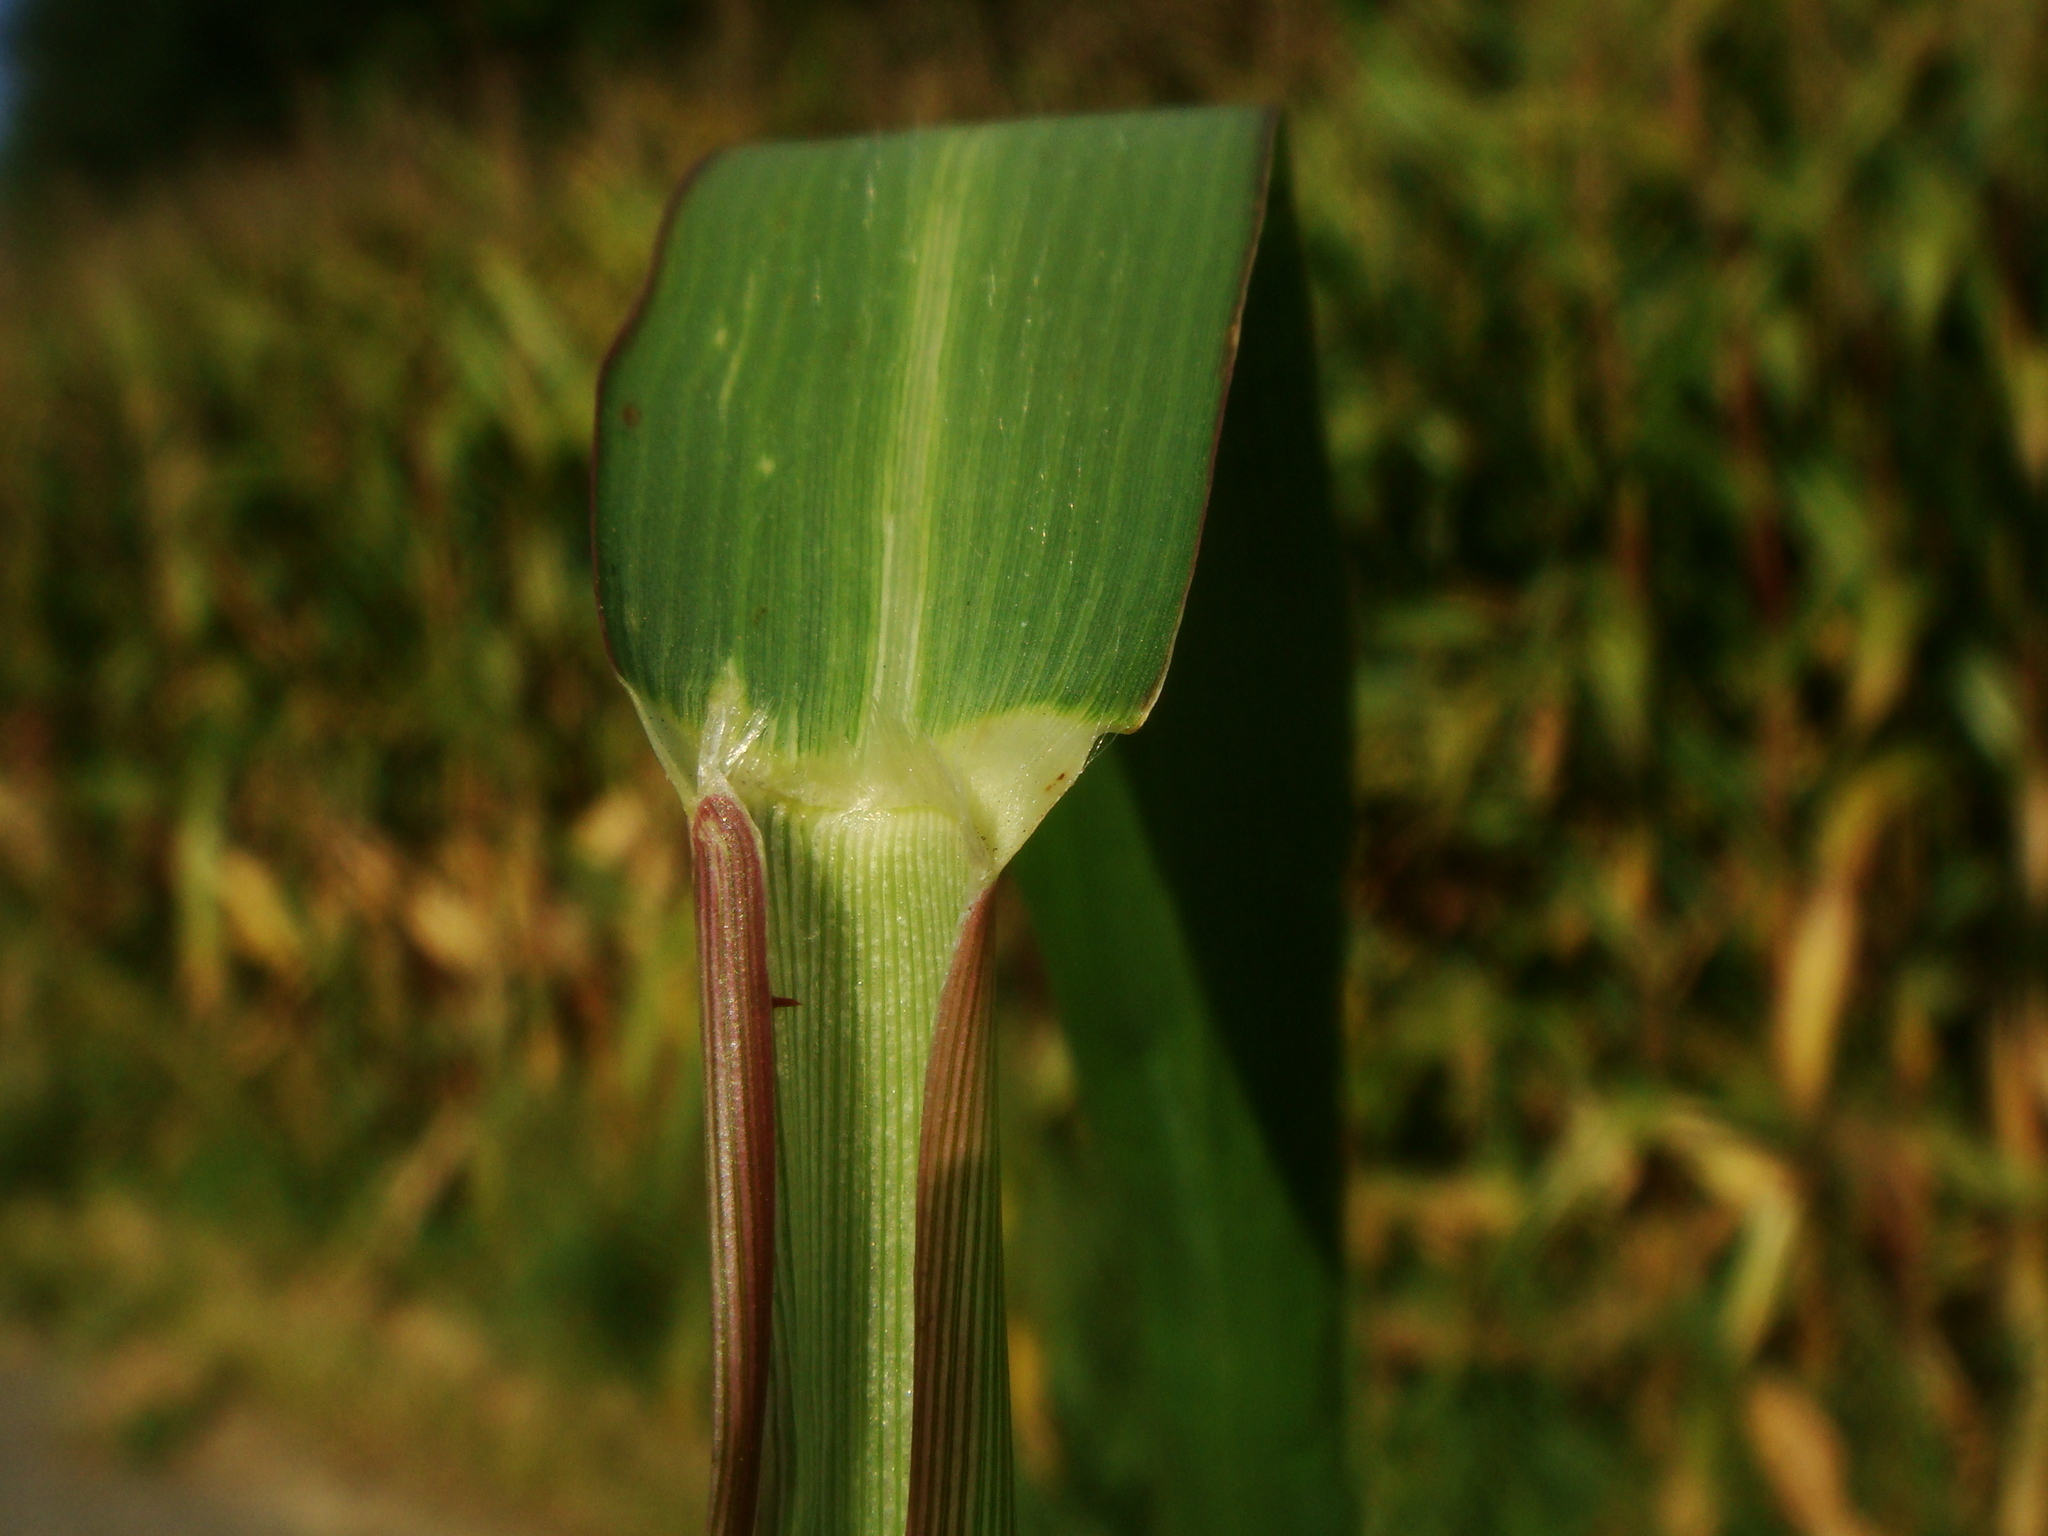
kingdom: Plantae
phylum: Tracheophyta
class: Liliopsida
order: Poales
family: Poaceae
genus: Panicum
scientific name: Panicum dichotomiflorum
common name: Autumn millet
